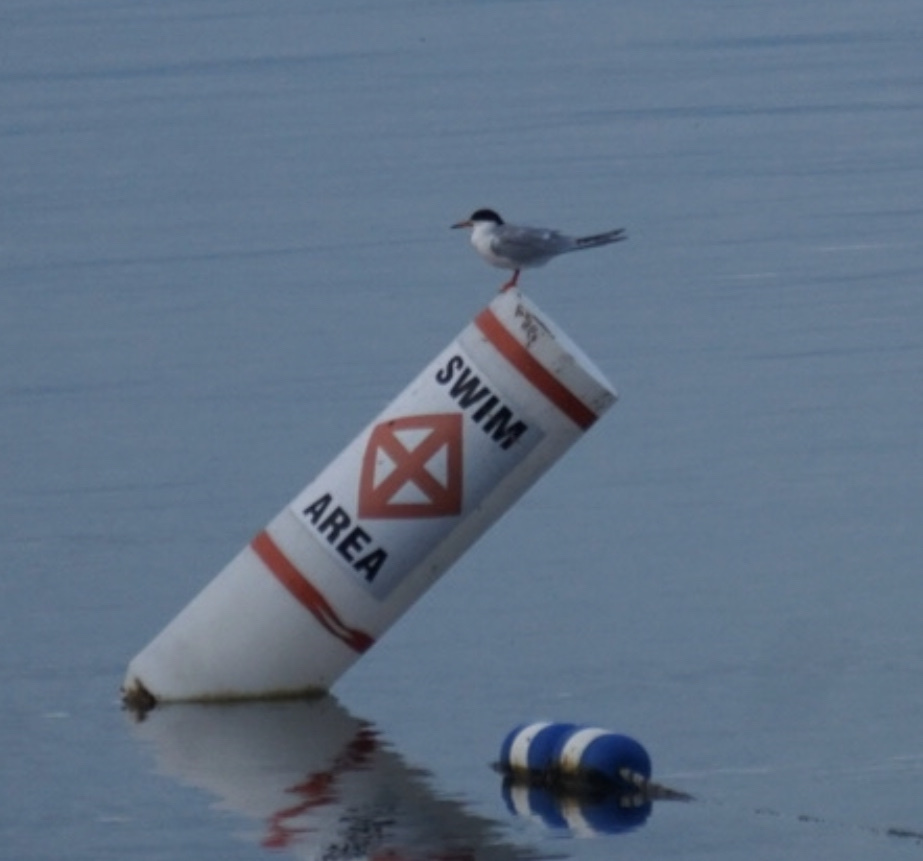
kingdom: Animalia
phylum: Chordata
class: Aves
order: Charadriiformes
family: Laridae
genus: Sterna
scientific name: Sterna hirundo
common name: Common tern
